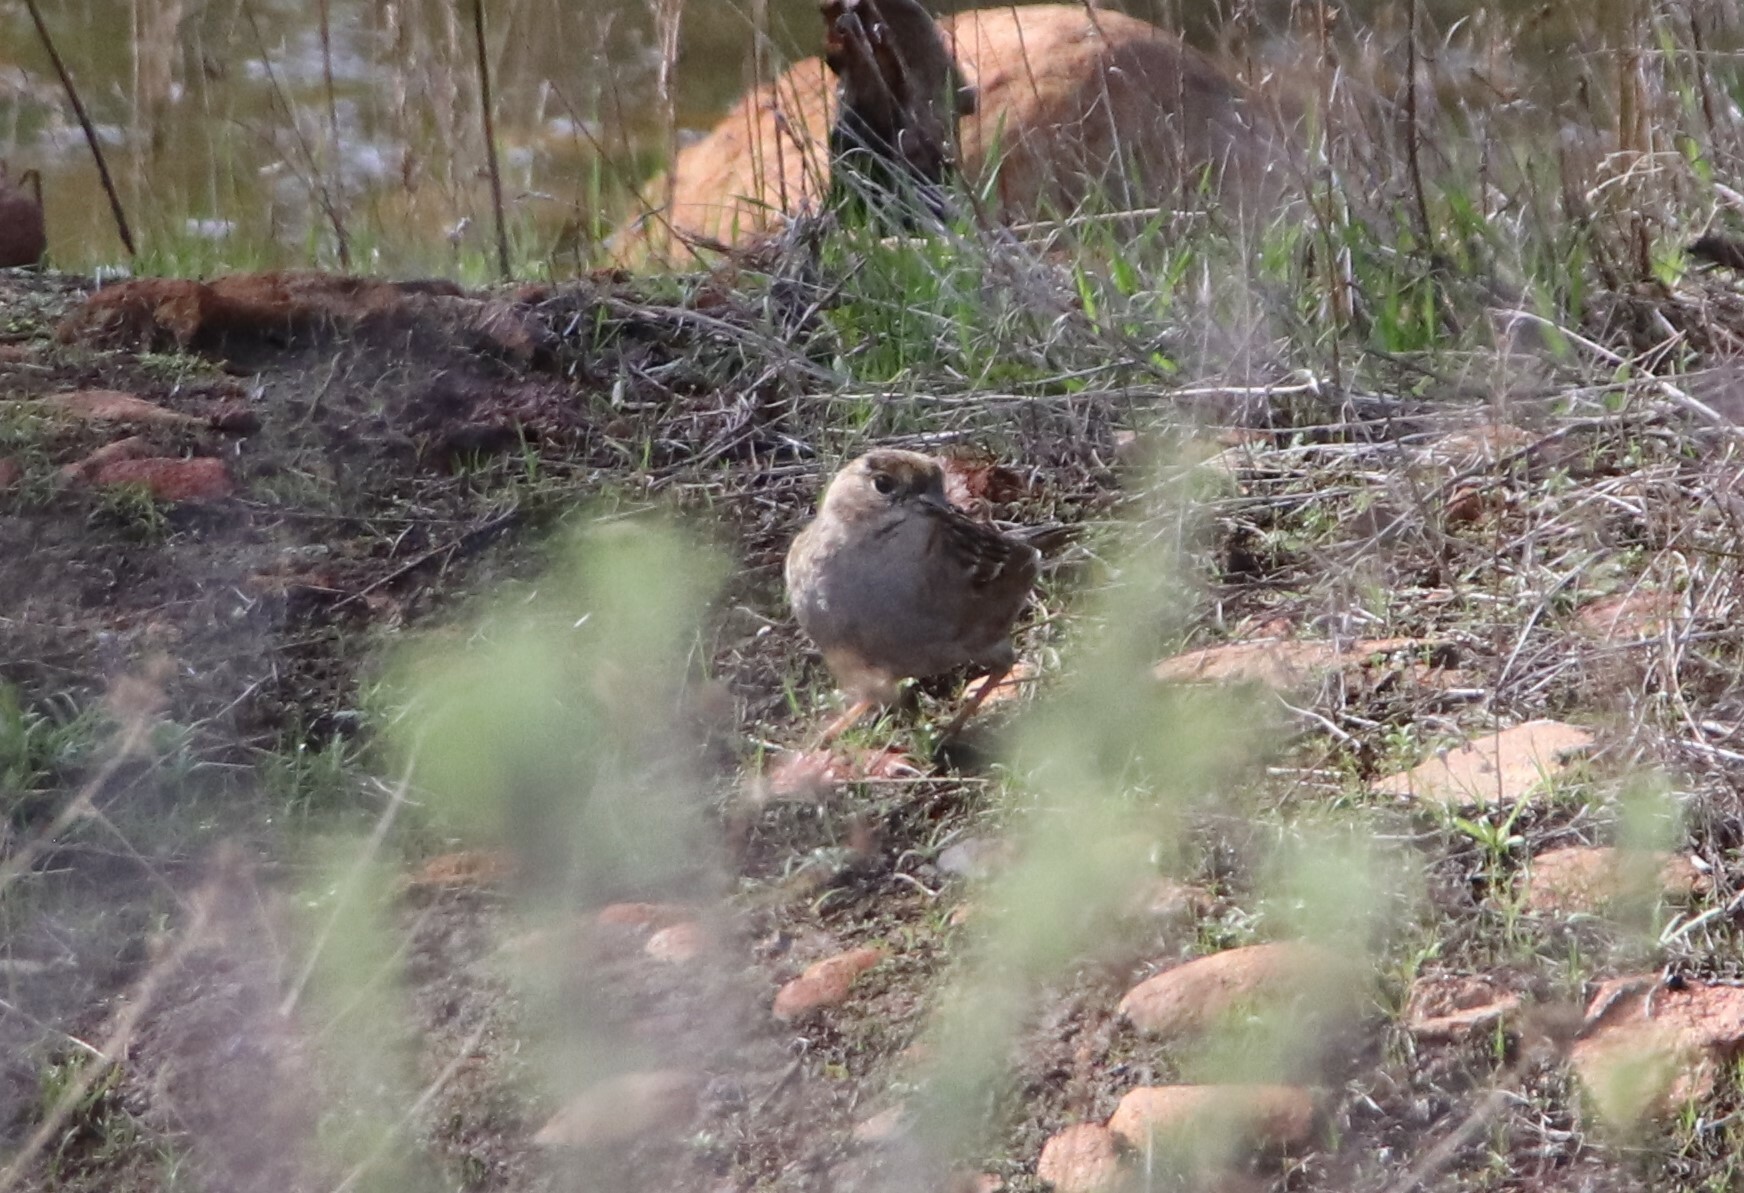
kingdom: Animalia
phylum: Chordata
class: Aves
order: Passeriformes
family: Passerellidae
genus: Zonotrichia
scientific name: Zonotrichia atricapilla
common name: Golden-crowned sparrow
